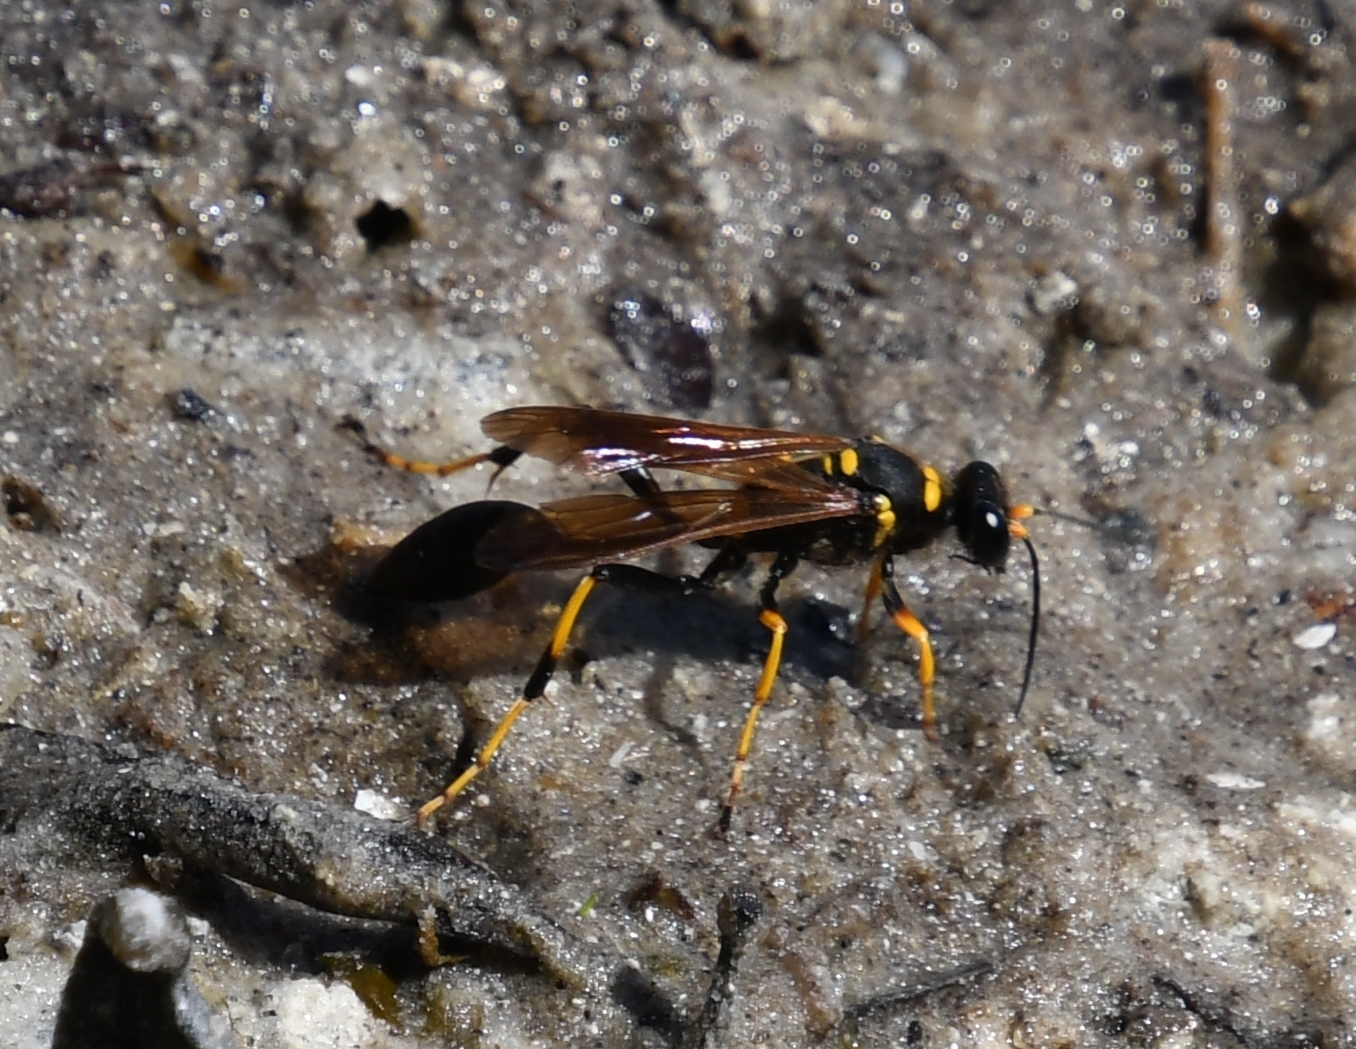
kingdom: Animalia
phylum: Arthropoda
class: Insecta
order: Hymenoptera
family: Sphecidae
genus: Sceliphron
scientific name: Sceliphron caementarium
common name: Mud dauber
